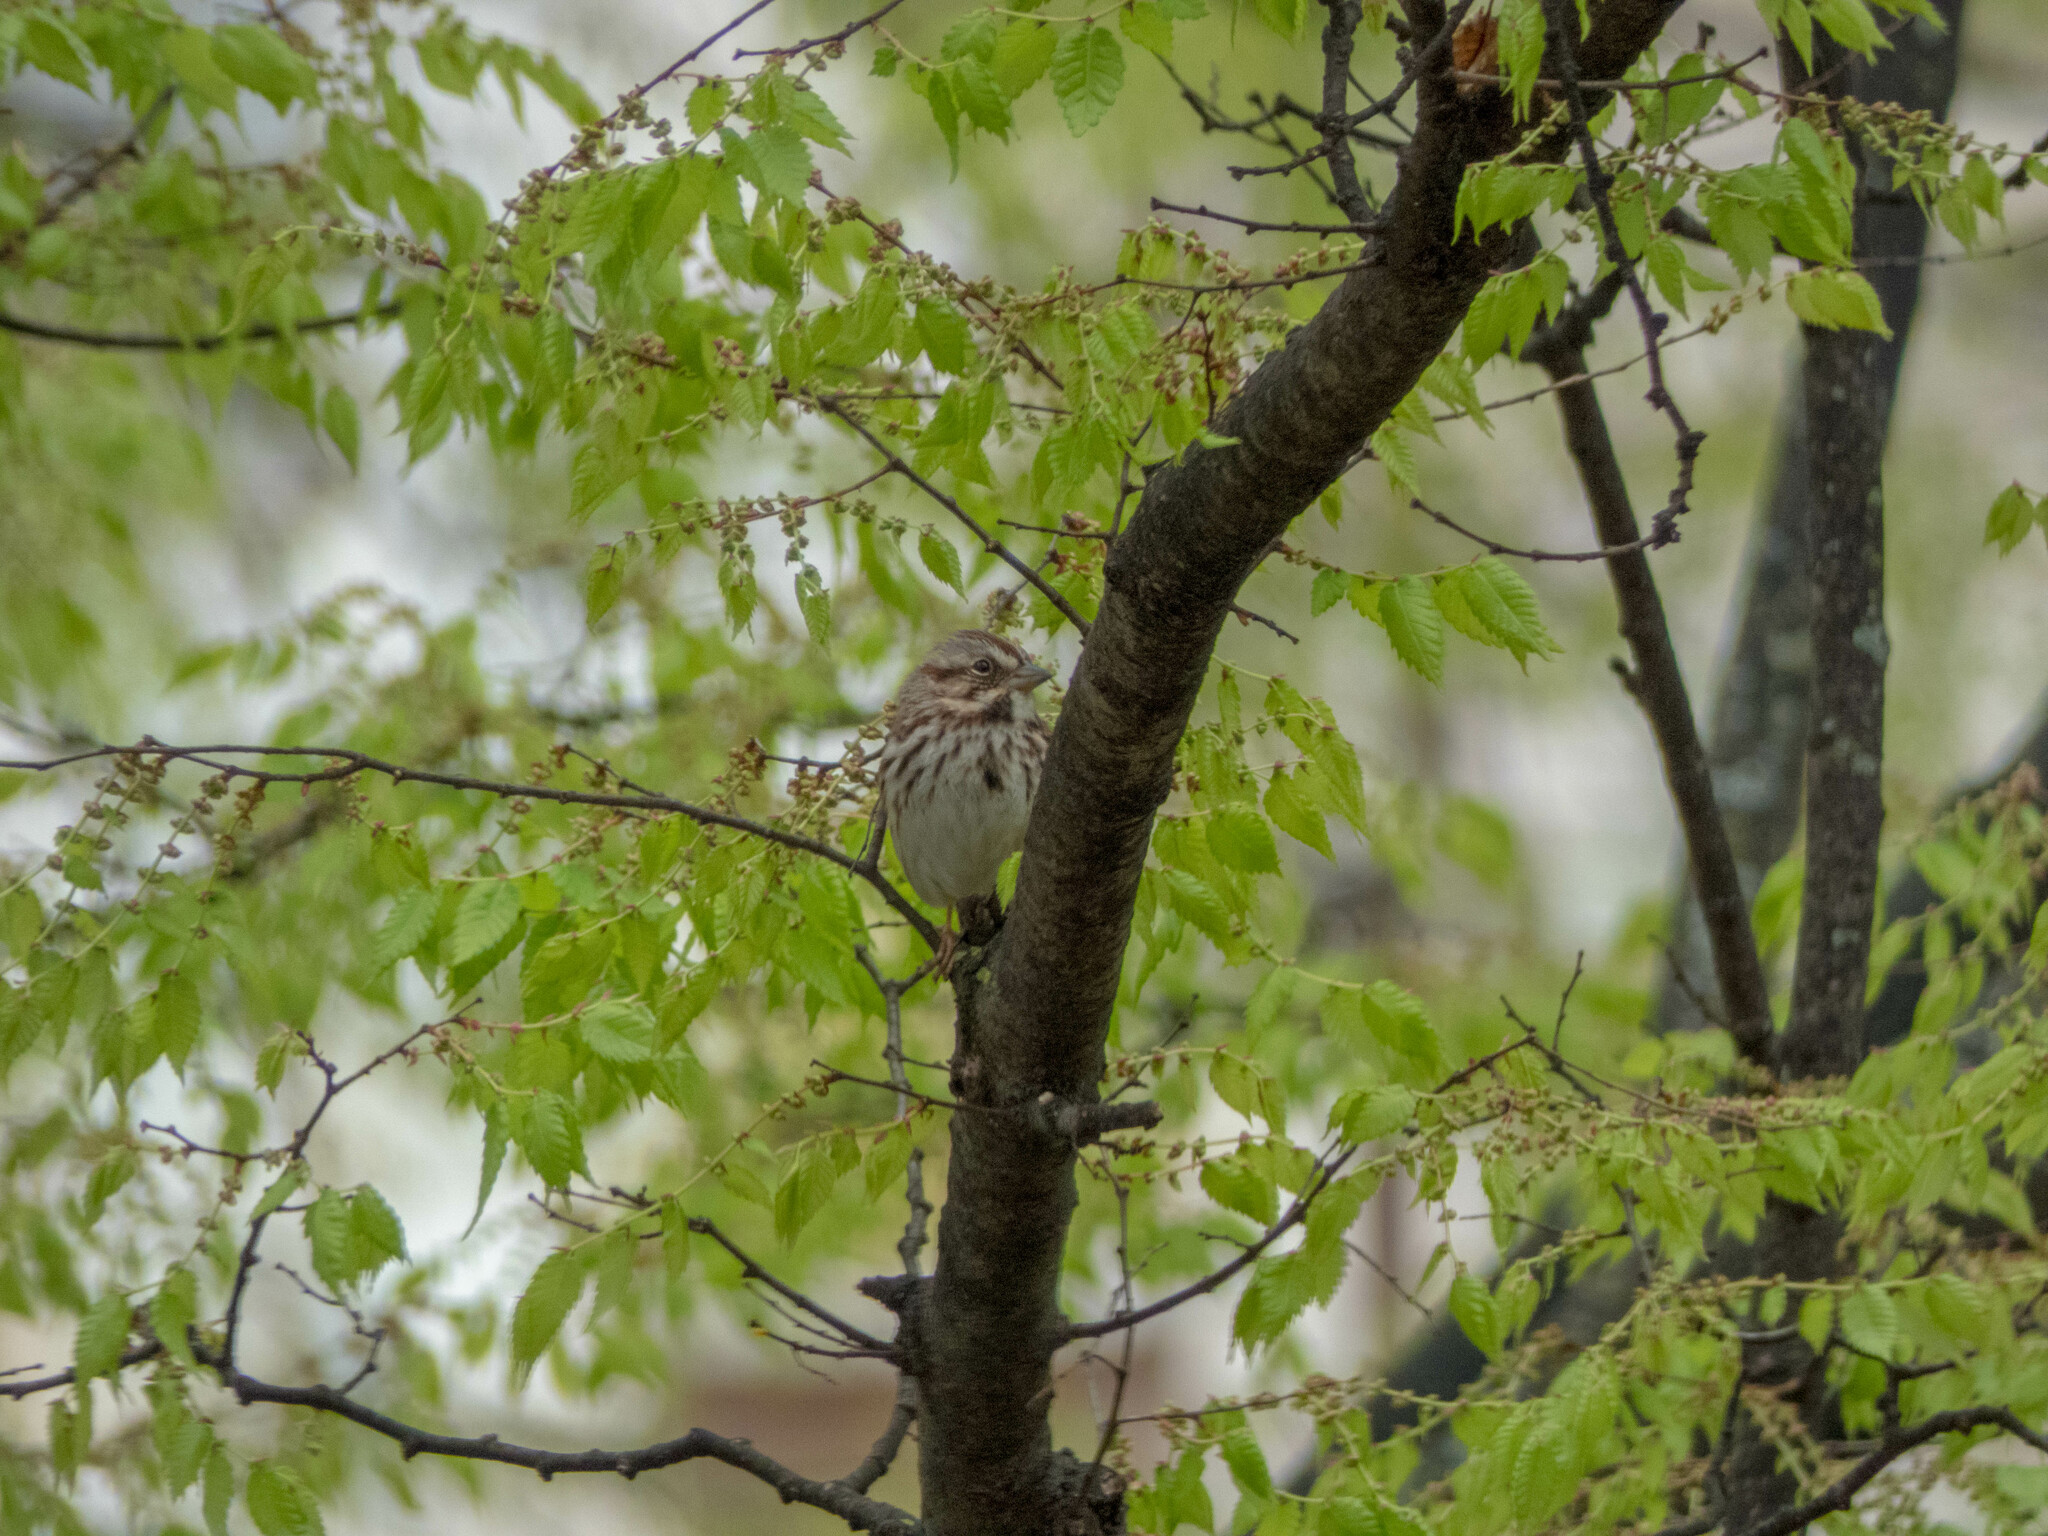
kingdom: Animalia
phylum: Chordata
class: Aves
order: Passeriformes
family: Passerellidae
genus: Melospiza
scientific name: Melospiza melodia
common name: Song sparrow
